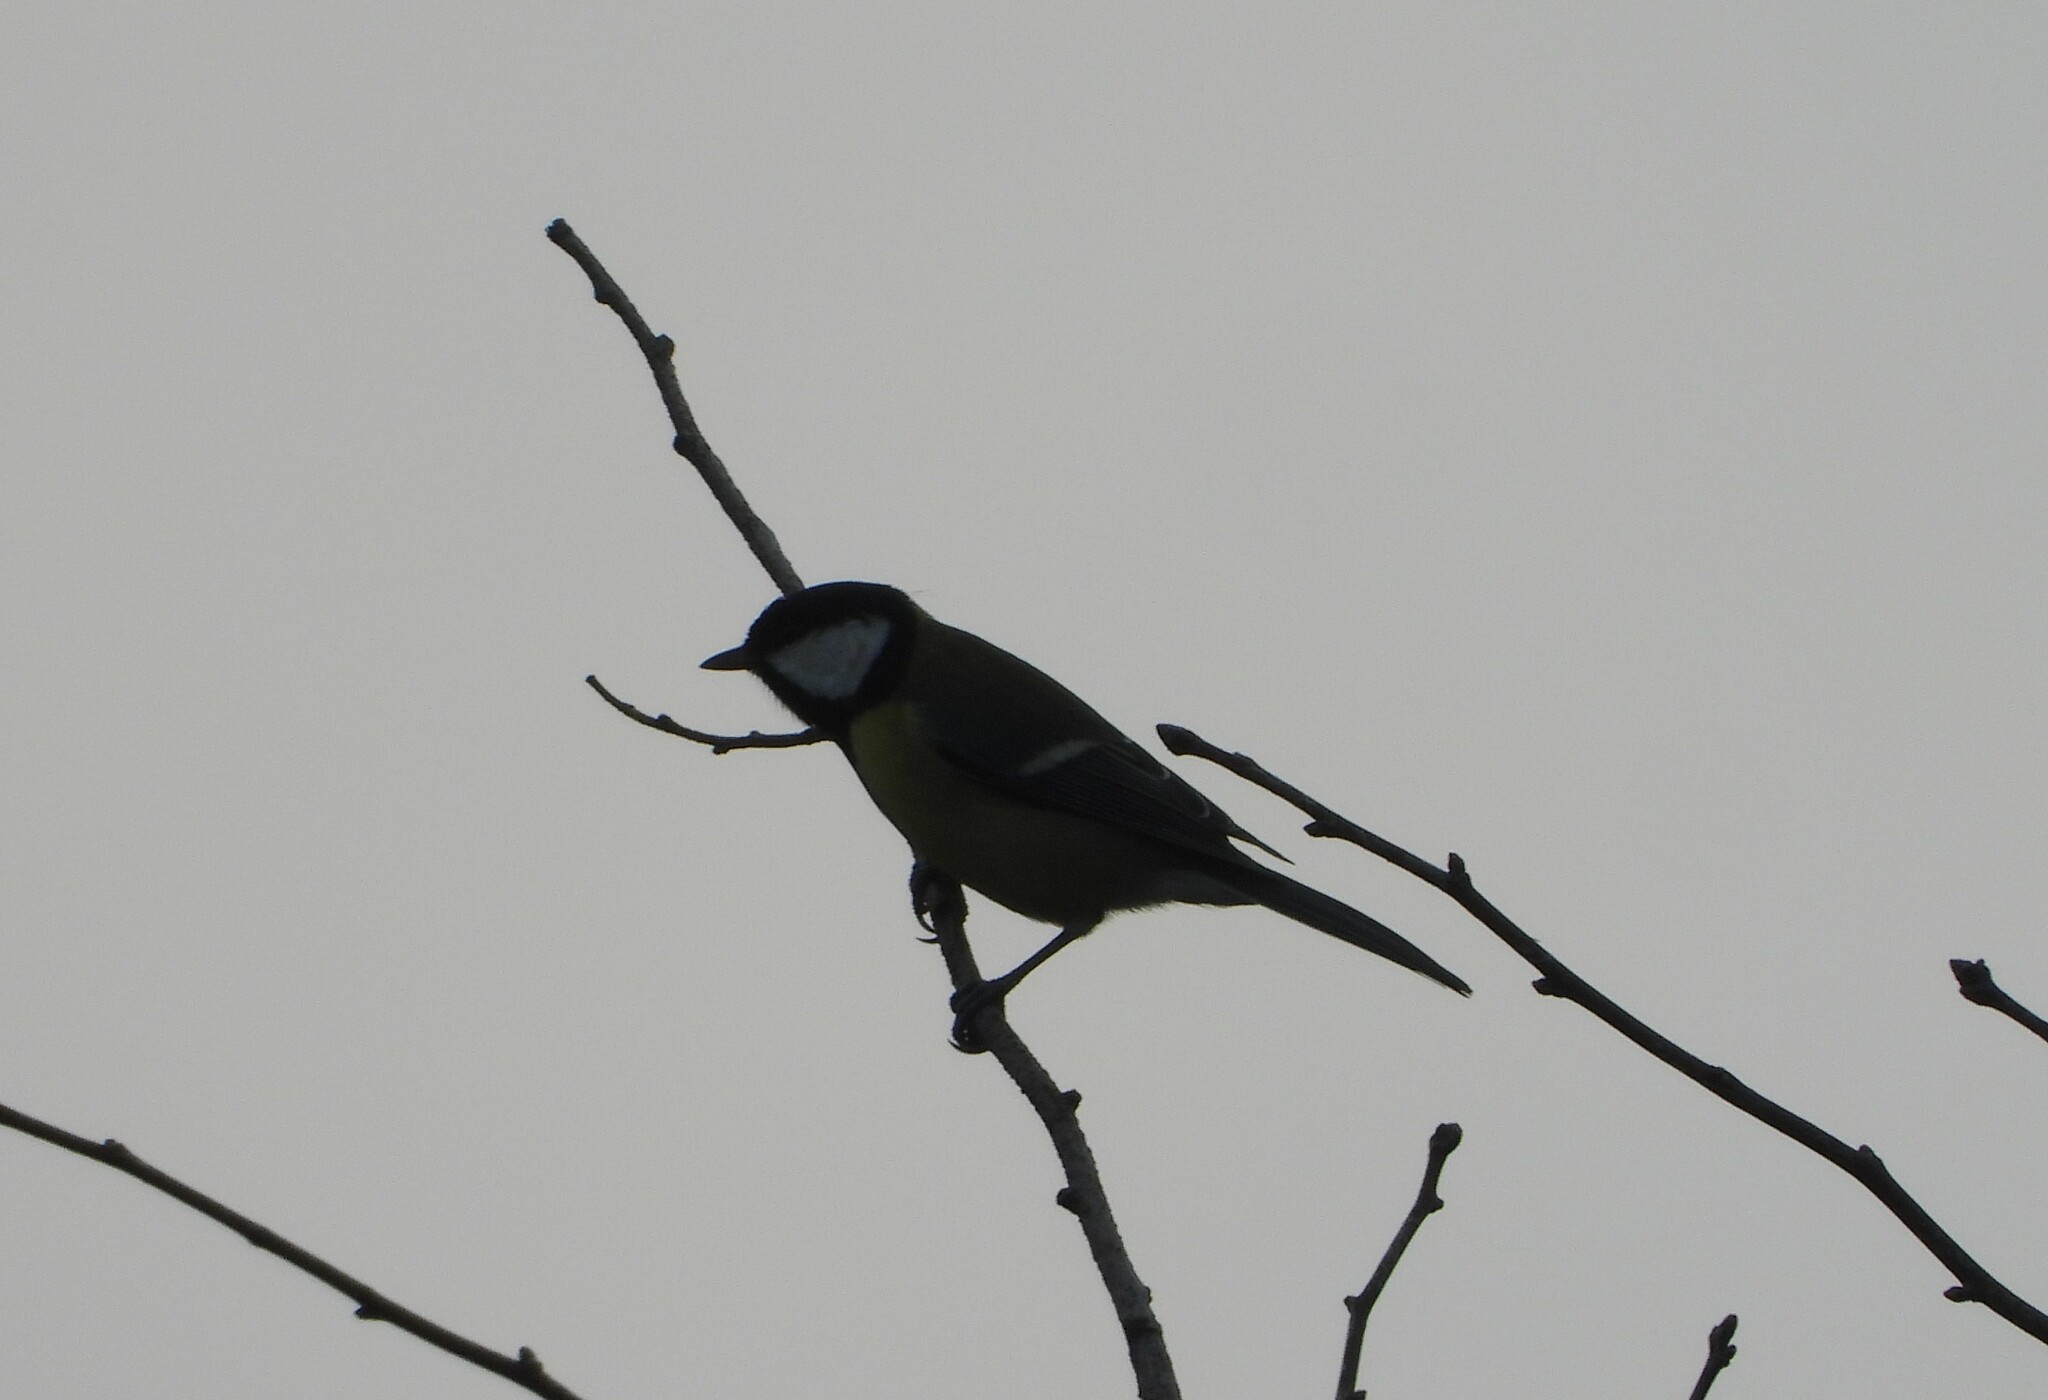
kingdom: Animalia
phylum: Chordata
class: Aves
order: Passeriformes
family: Paridae
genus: Parus
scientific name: Parus major
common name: Great tit
